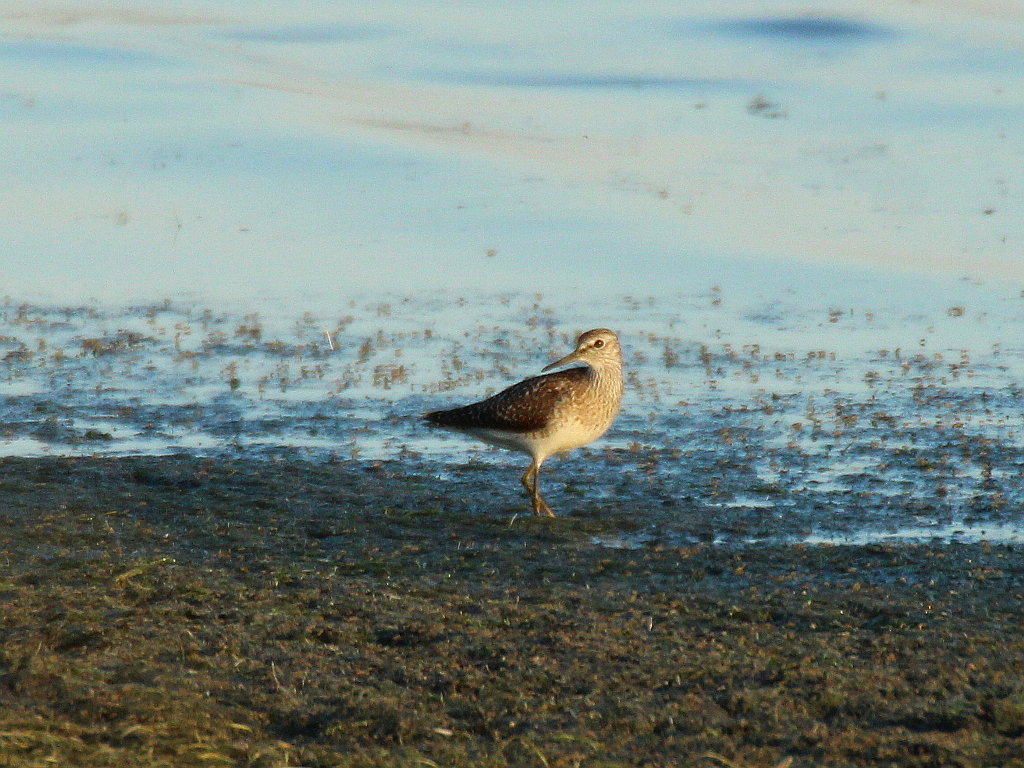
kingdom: Animalia
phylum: Chordata
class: Aves
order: Charadriiformes
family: Scolopacidae
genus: Tringa
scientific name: Tringa glareola
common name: Wood sandpiper
